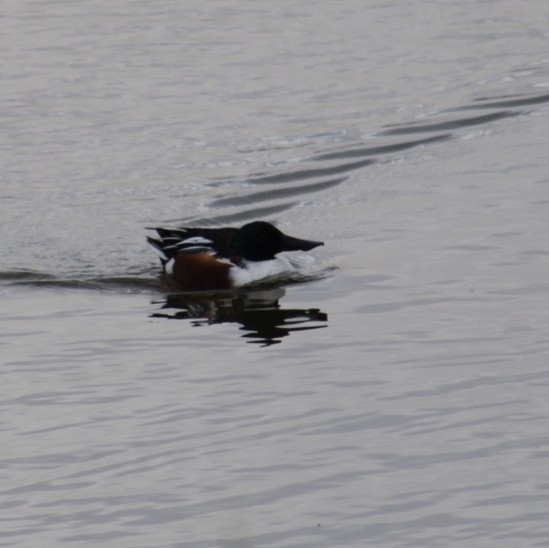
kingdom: Animalia
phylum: Chordata
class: Aves
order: Anseriformes
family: Anatidae
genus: Spatula
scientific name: Spatula clypeata
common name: Northern shoveler
